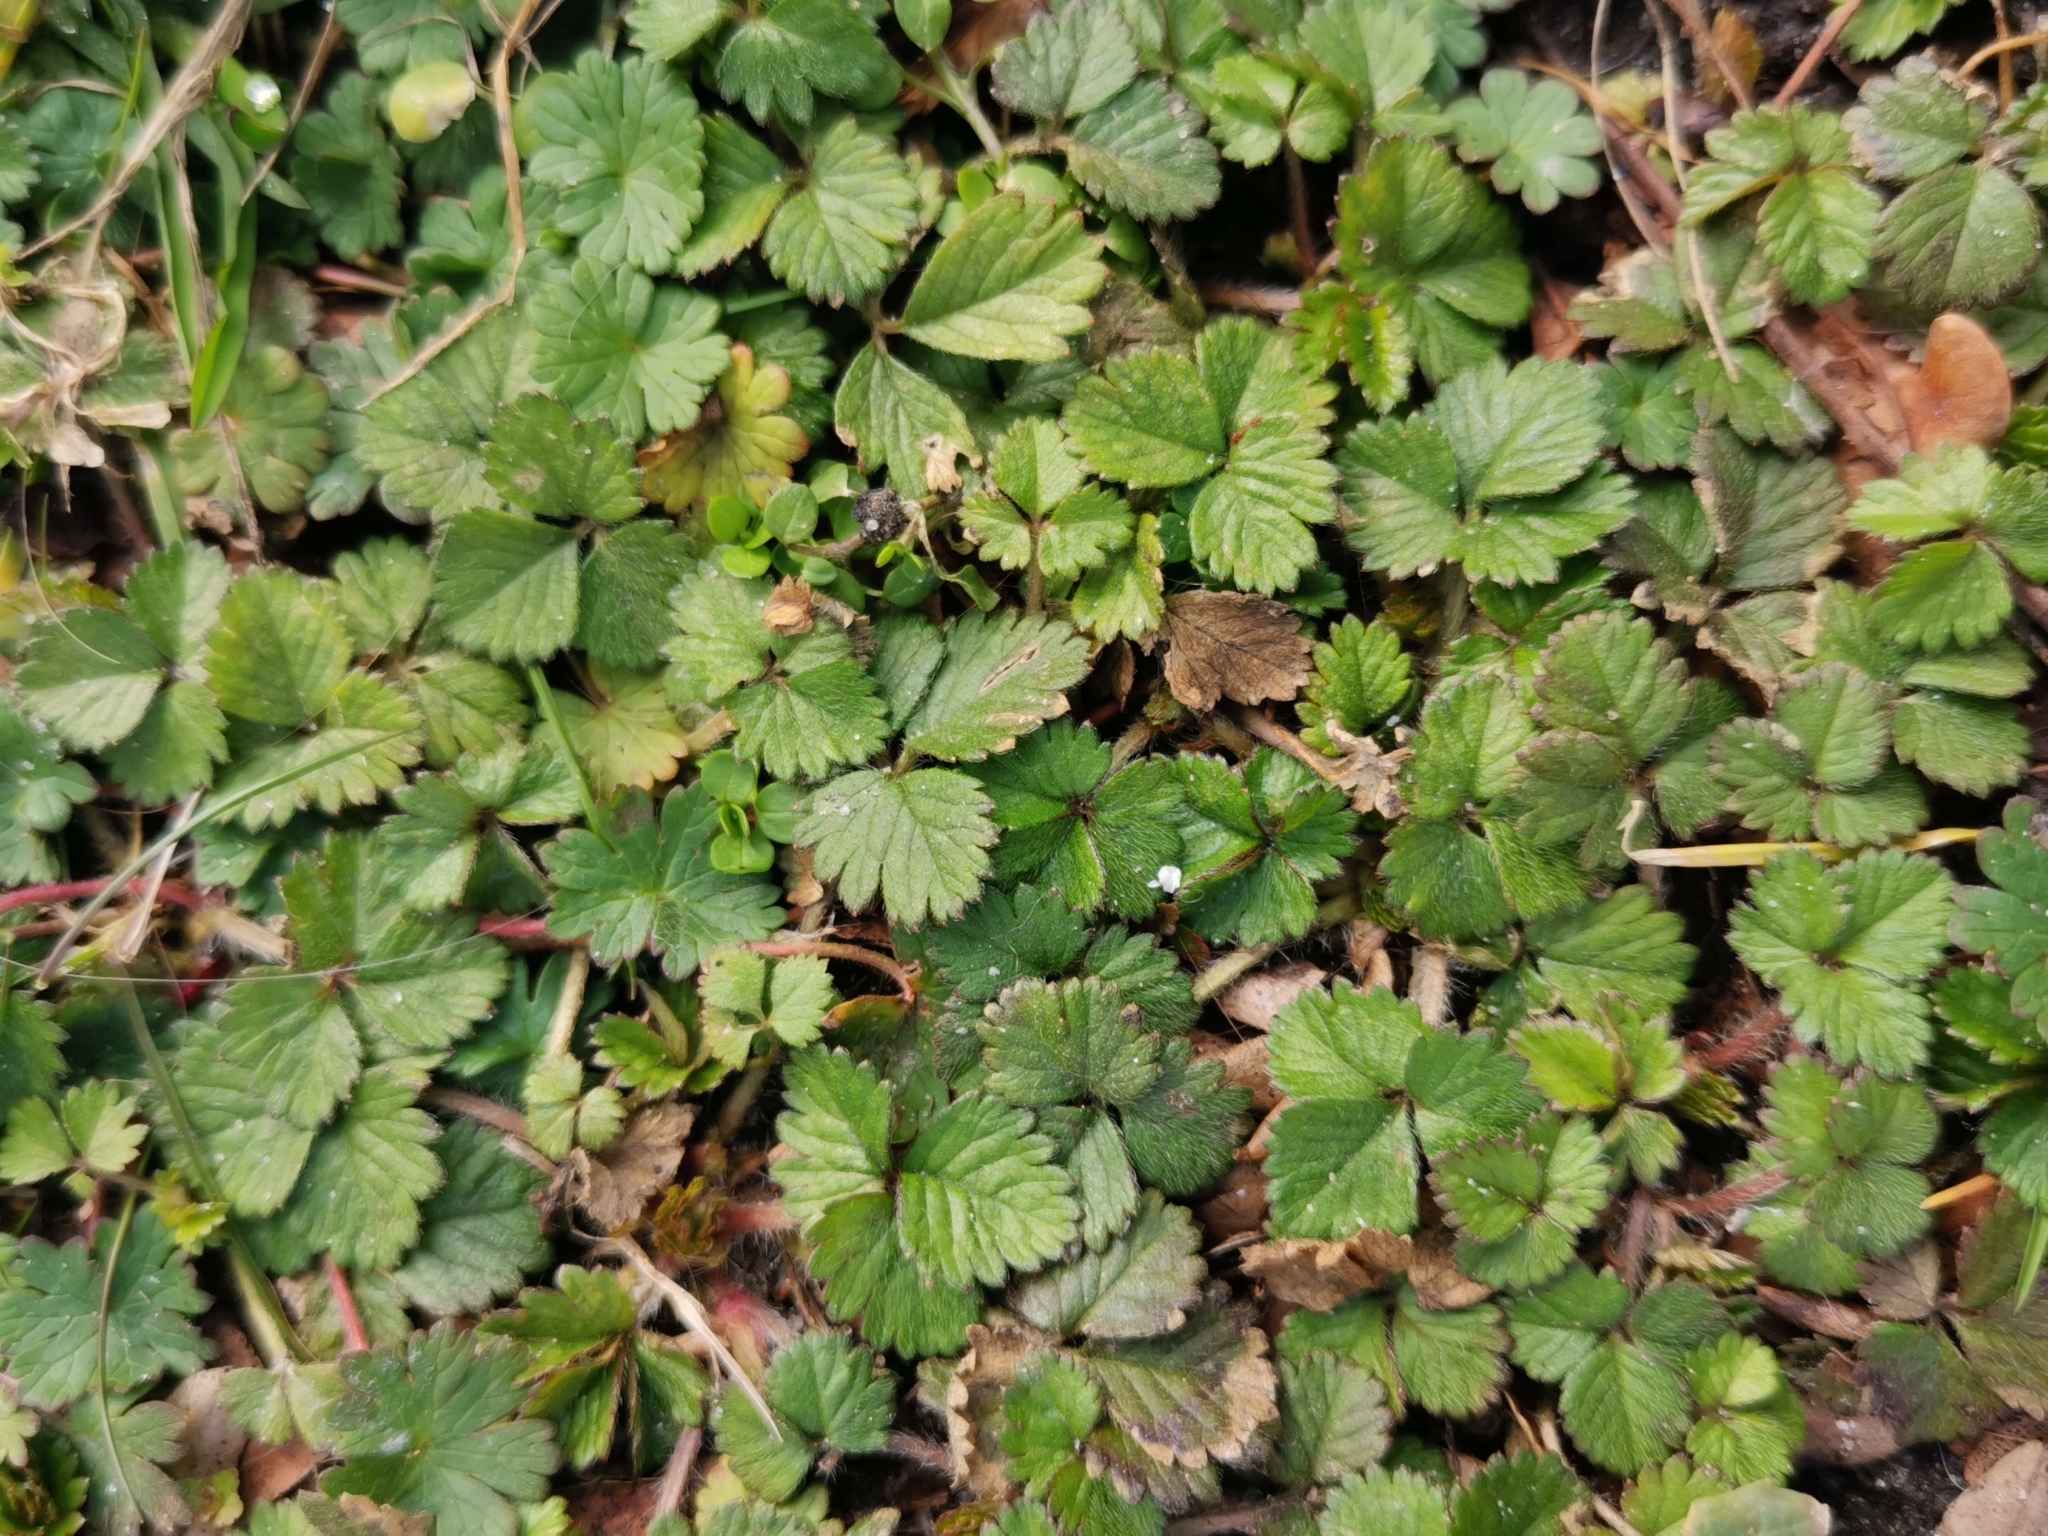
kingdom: Plantae
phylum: Tracheophyta
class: Magnoliopsida
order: Rosales
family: Rosaceae
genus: Potentilla
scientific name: Potentilla indica
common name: Yellow-flowered strawberry
